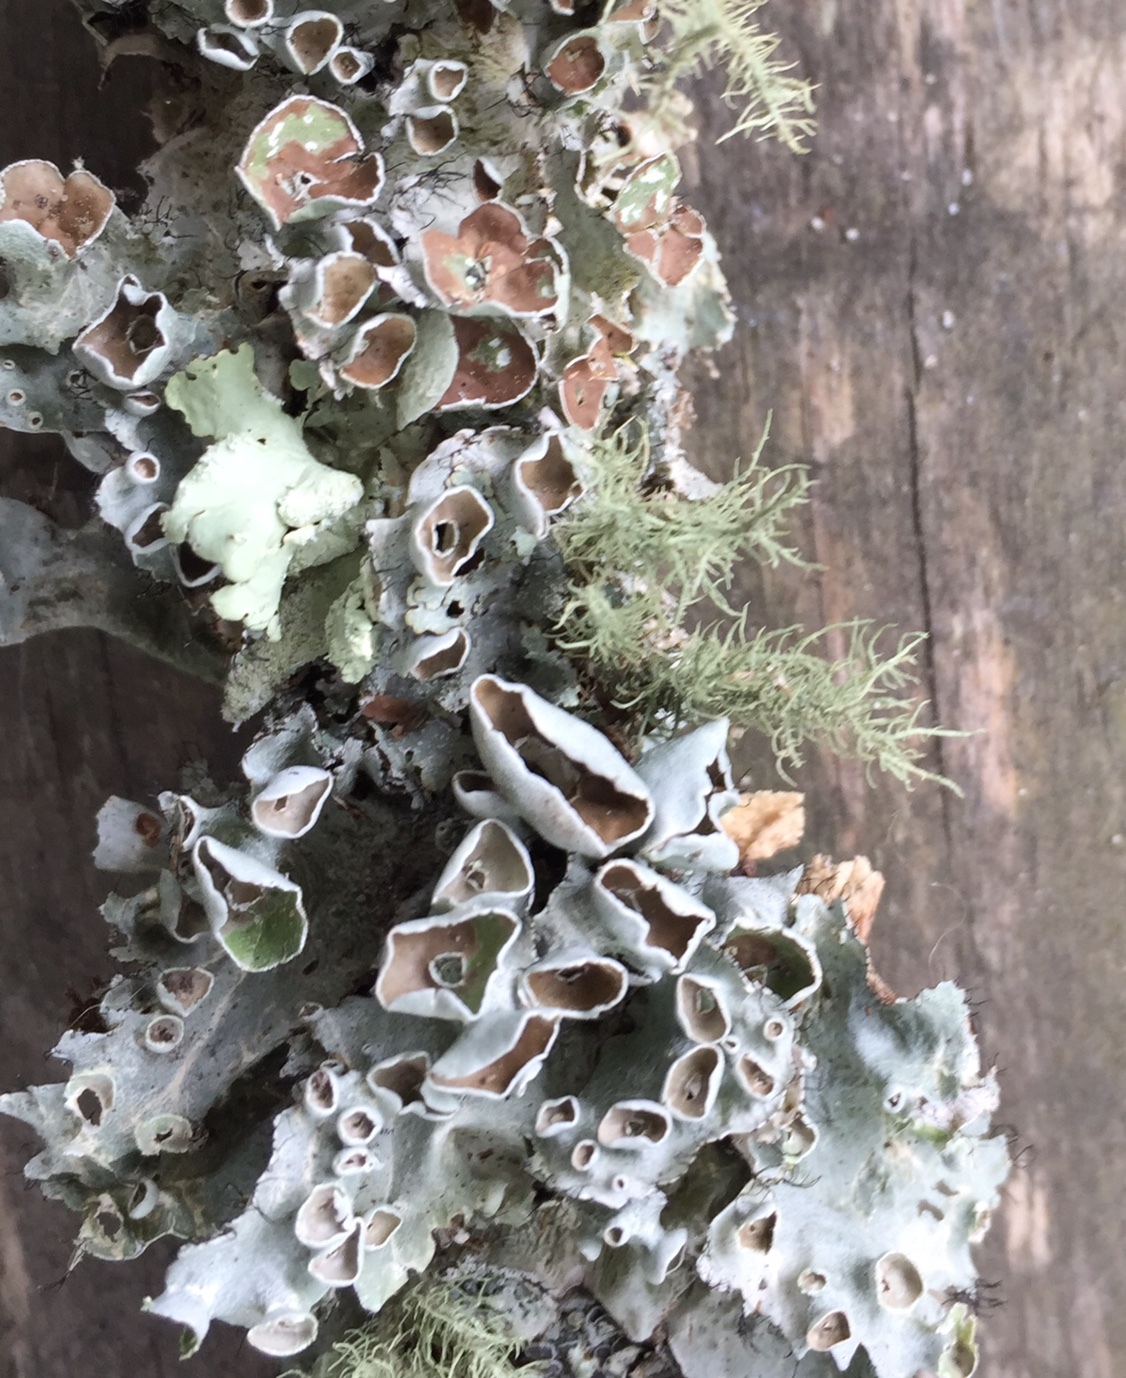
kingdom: Fungi
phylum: Ascomycota
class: Lecanoromycetes
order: Lecanorales
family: Parmeliaceae
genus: Parmotrema
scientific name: Parmotrema perforatum
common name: Perforated ruffle lichen
